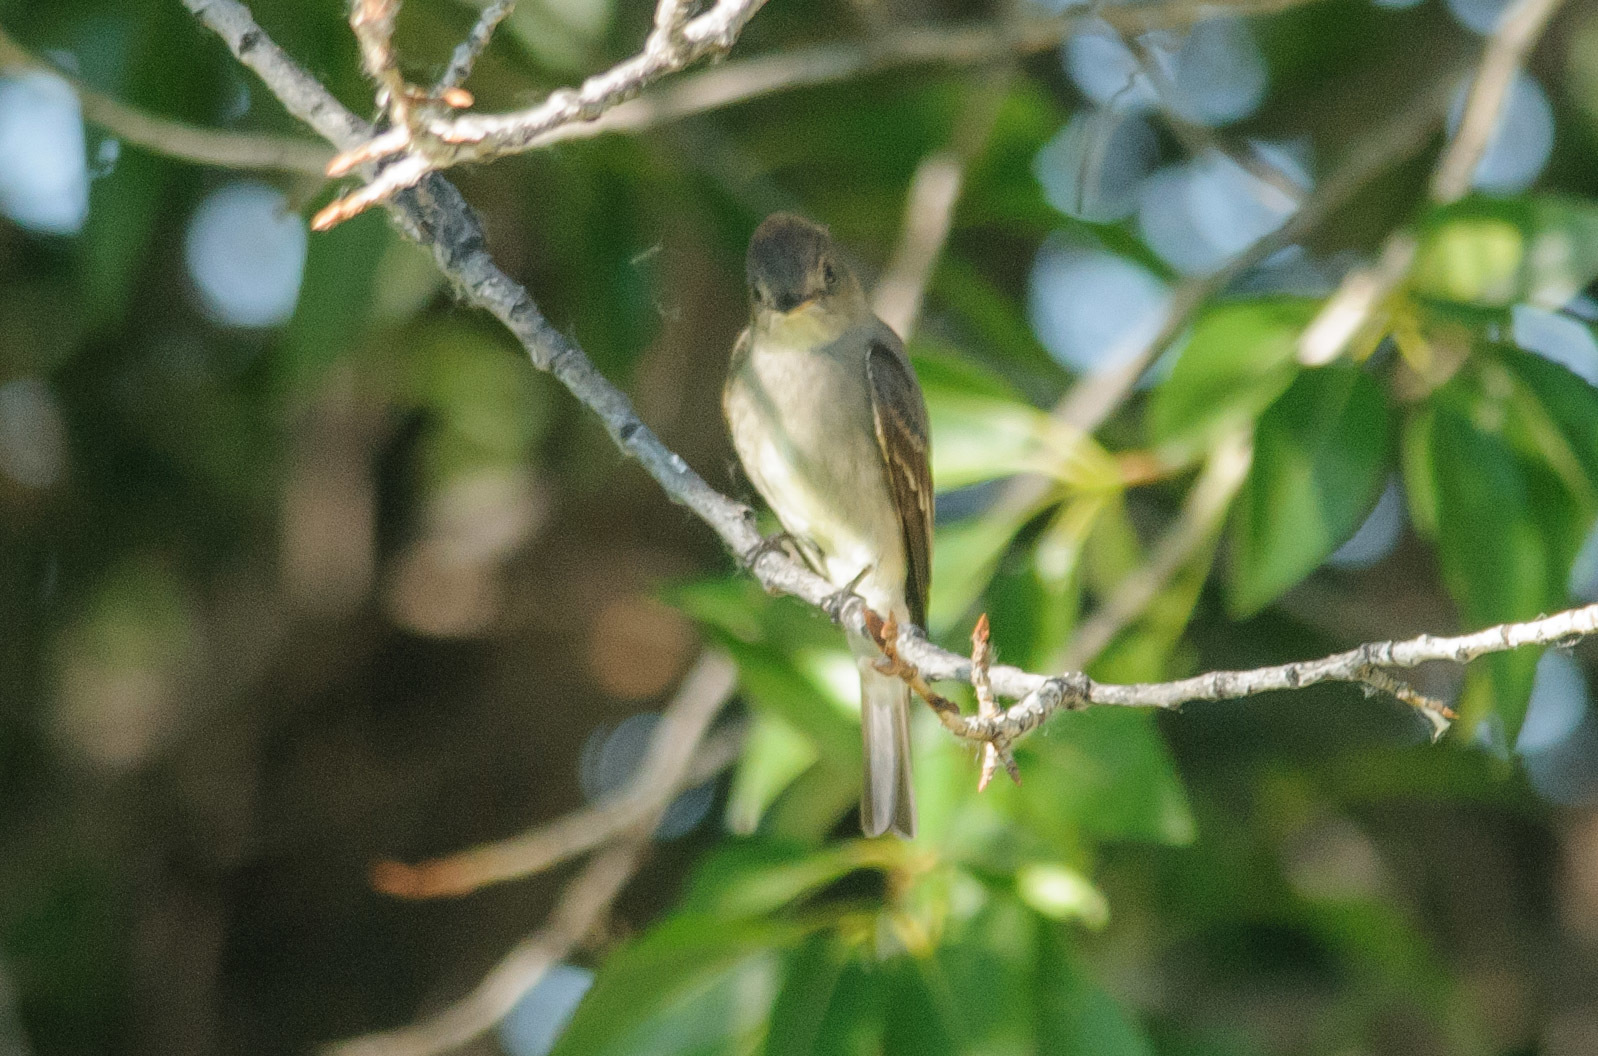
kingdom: Animalia
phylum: Chordata
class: Aves
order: Passeriformes
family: Tyrannidae
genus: Contopus
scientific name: Contopus sordidulus
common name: Western wood-pewee
